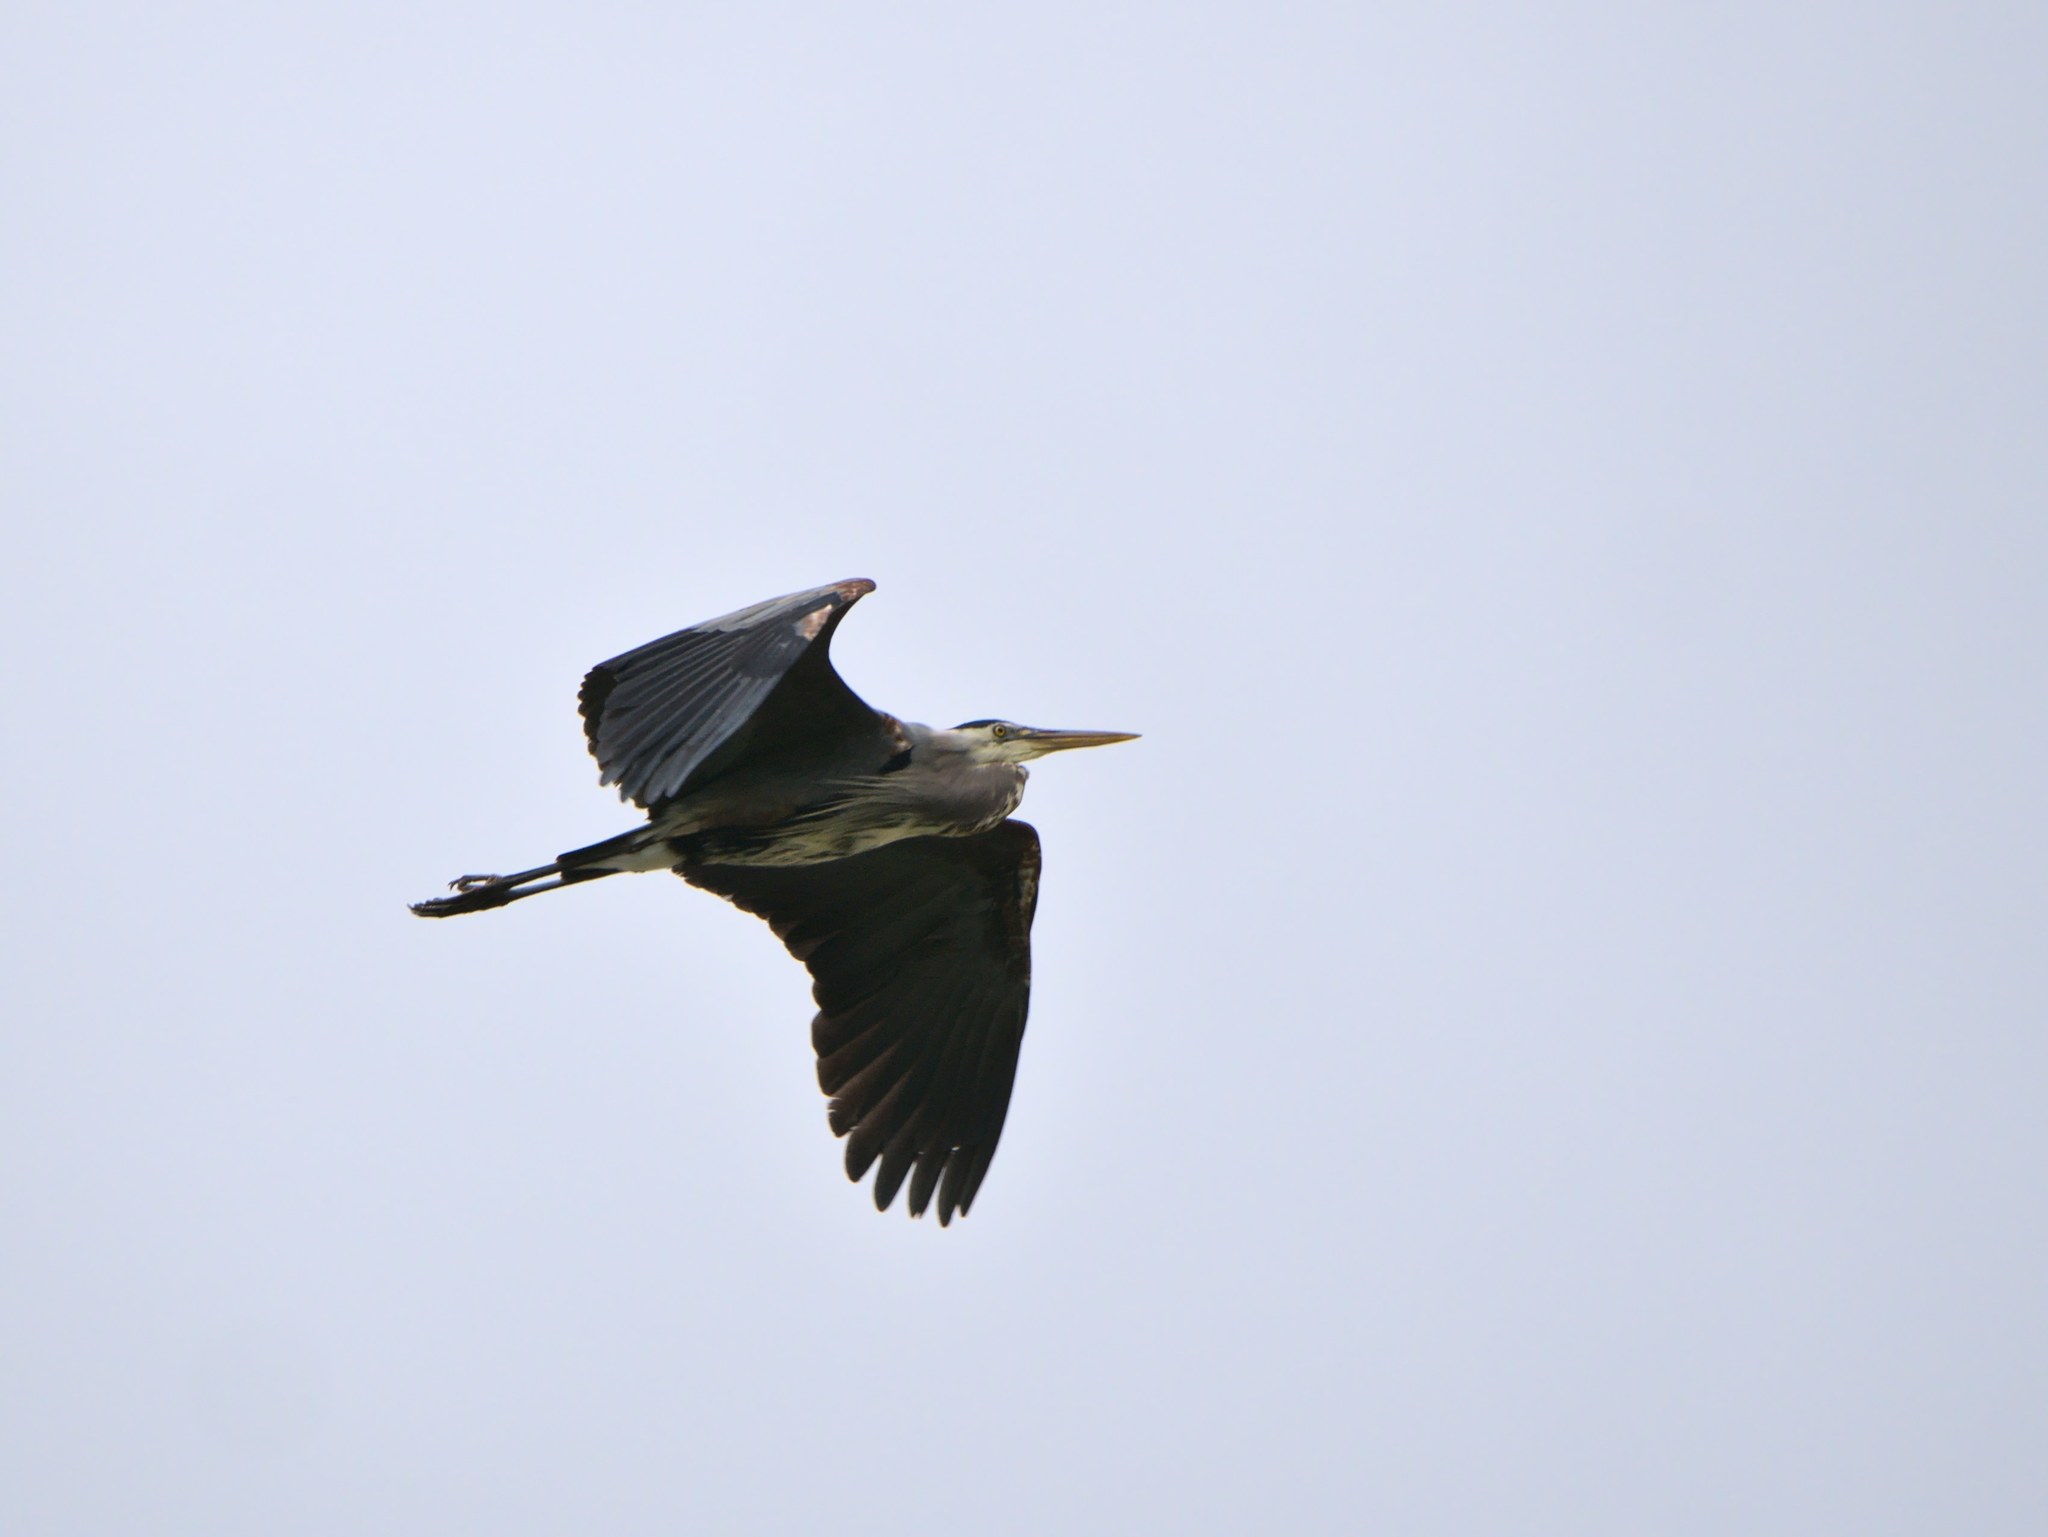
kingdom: Animalia
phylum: Chordata
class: Aves
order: Pelecaniformes
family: Ardeidae
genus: Ardea
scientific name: Ardea herodias
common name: Great blue heron
